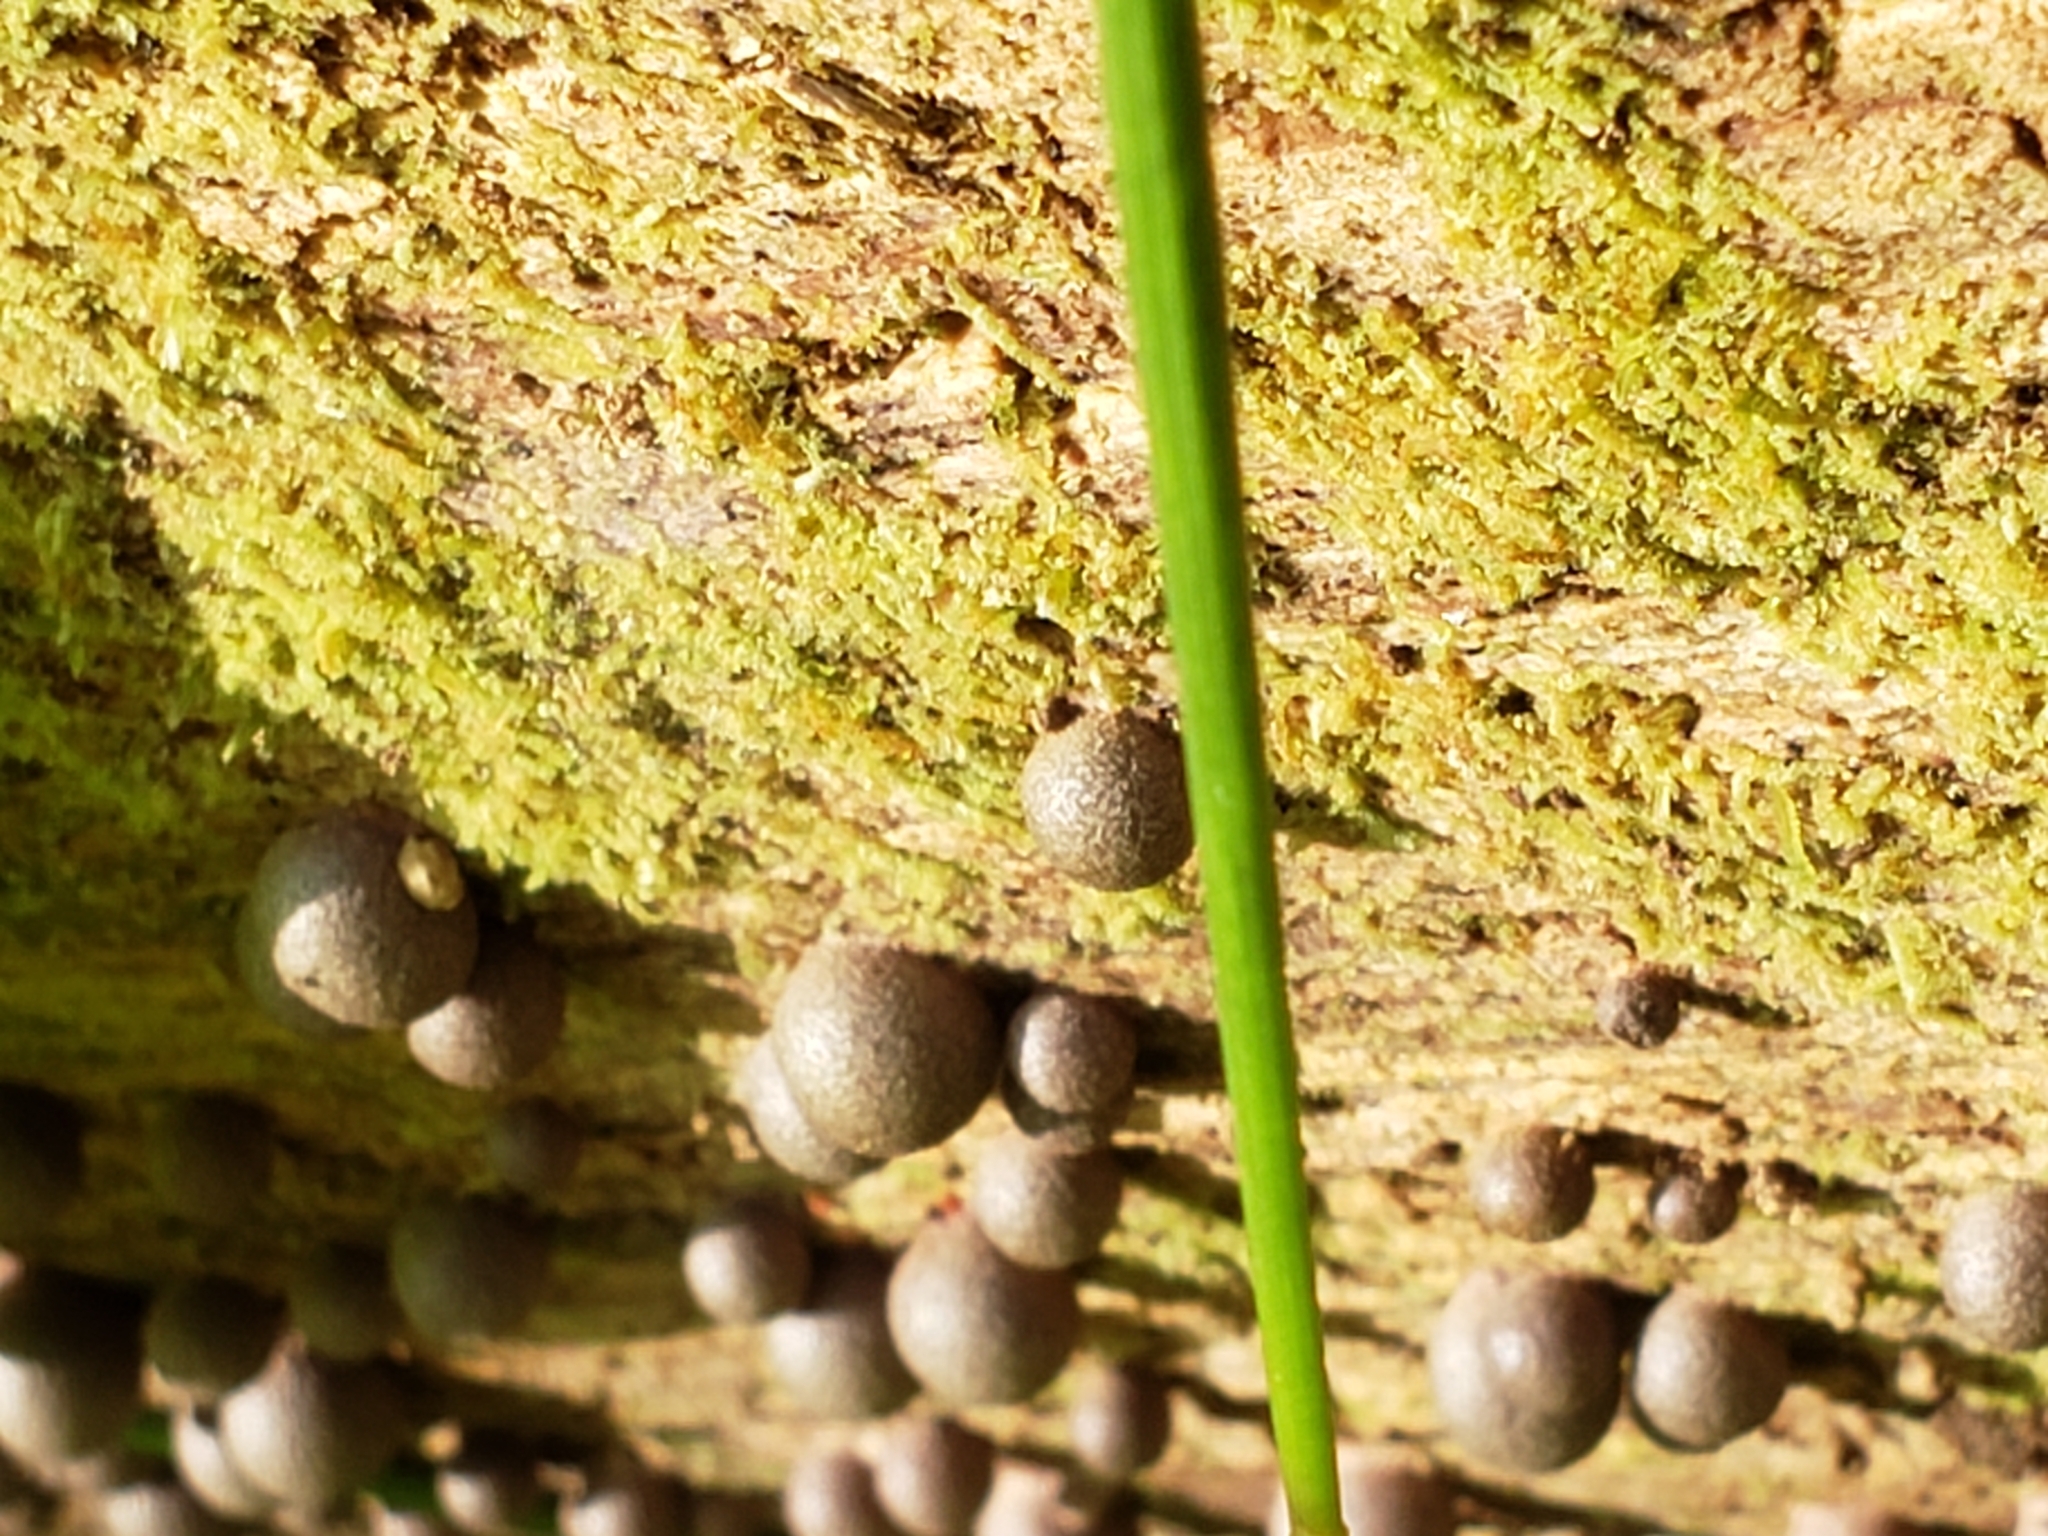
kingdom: Protozoa
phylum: Mycetozoa
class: Myxomycetes
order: Cribrariales
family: Tubiferaceae
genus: Lycogala
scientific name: Lycogala epidendrum
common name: Wolf's milk
